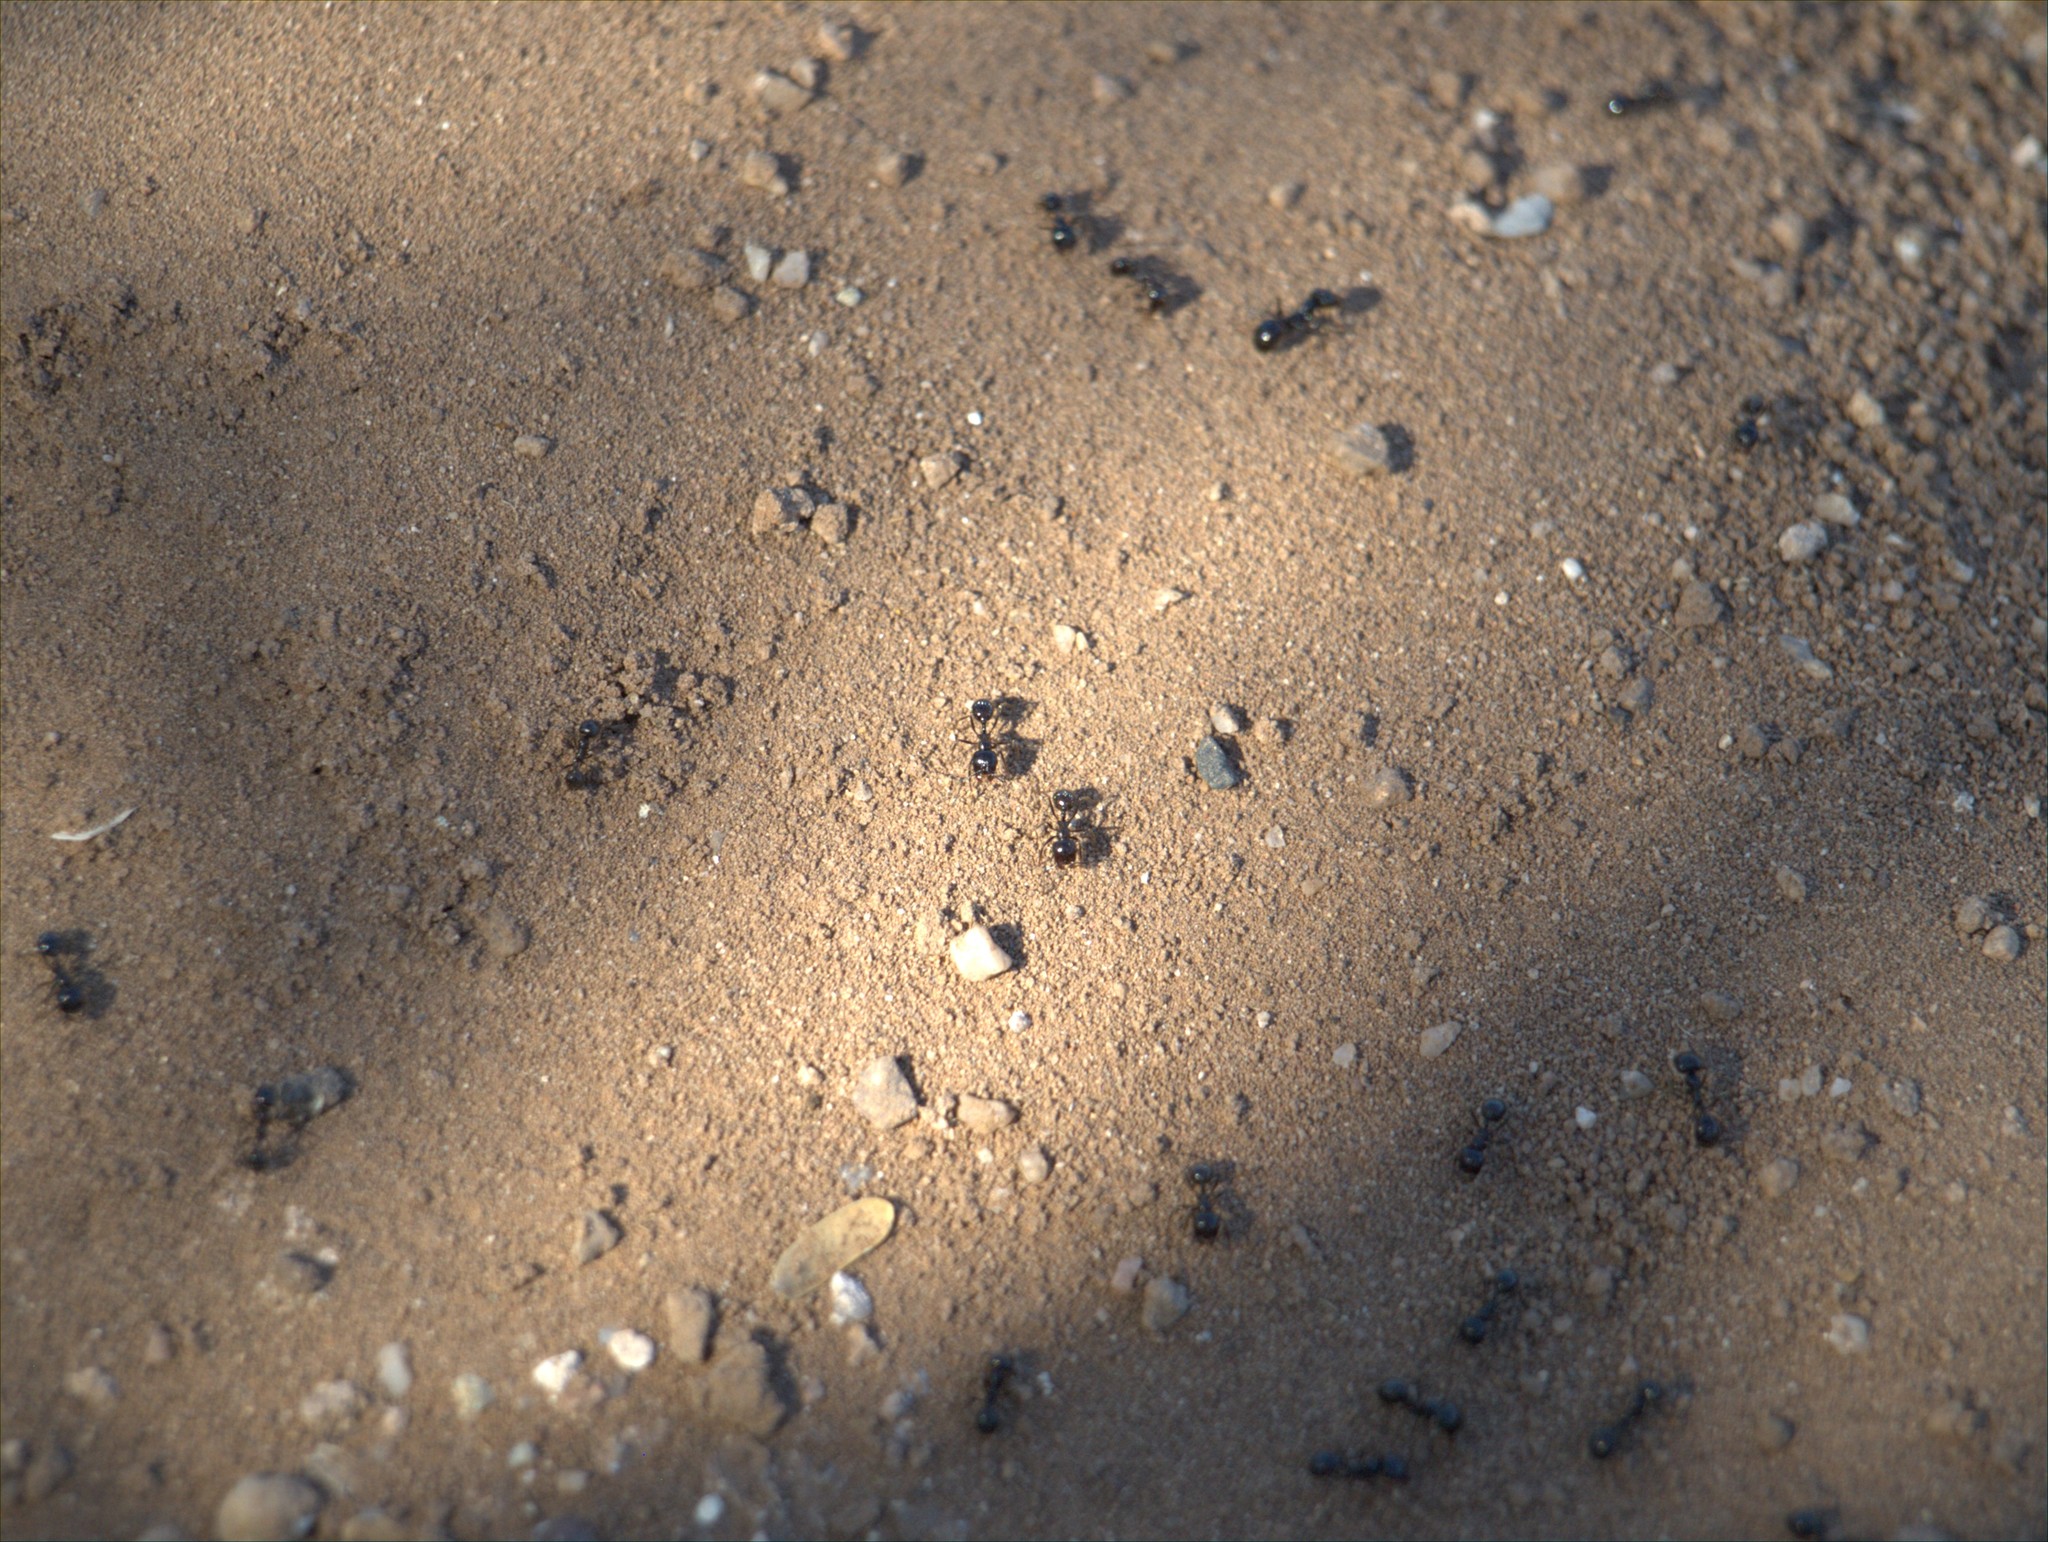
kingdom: Animalia
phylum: Arthropoda
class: Insecta
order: Hymenoptera
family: Formicidae
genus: Messor
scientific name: Messor pergandei
